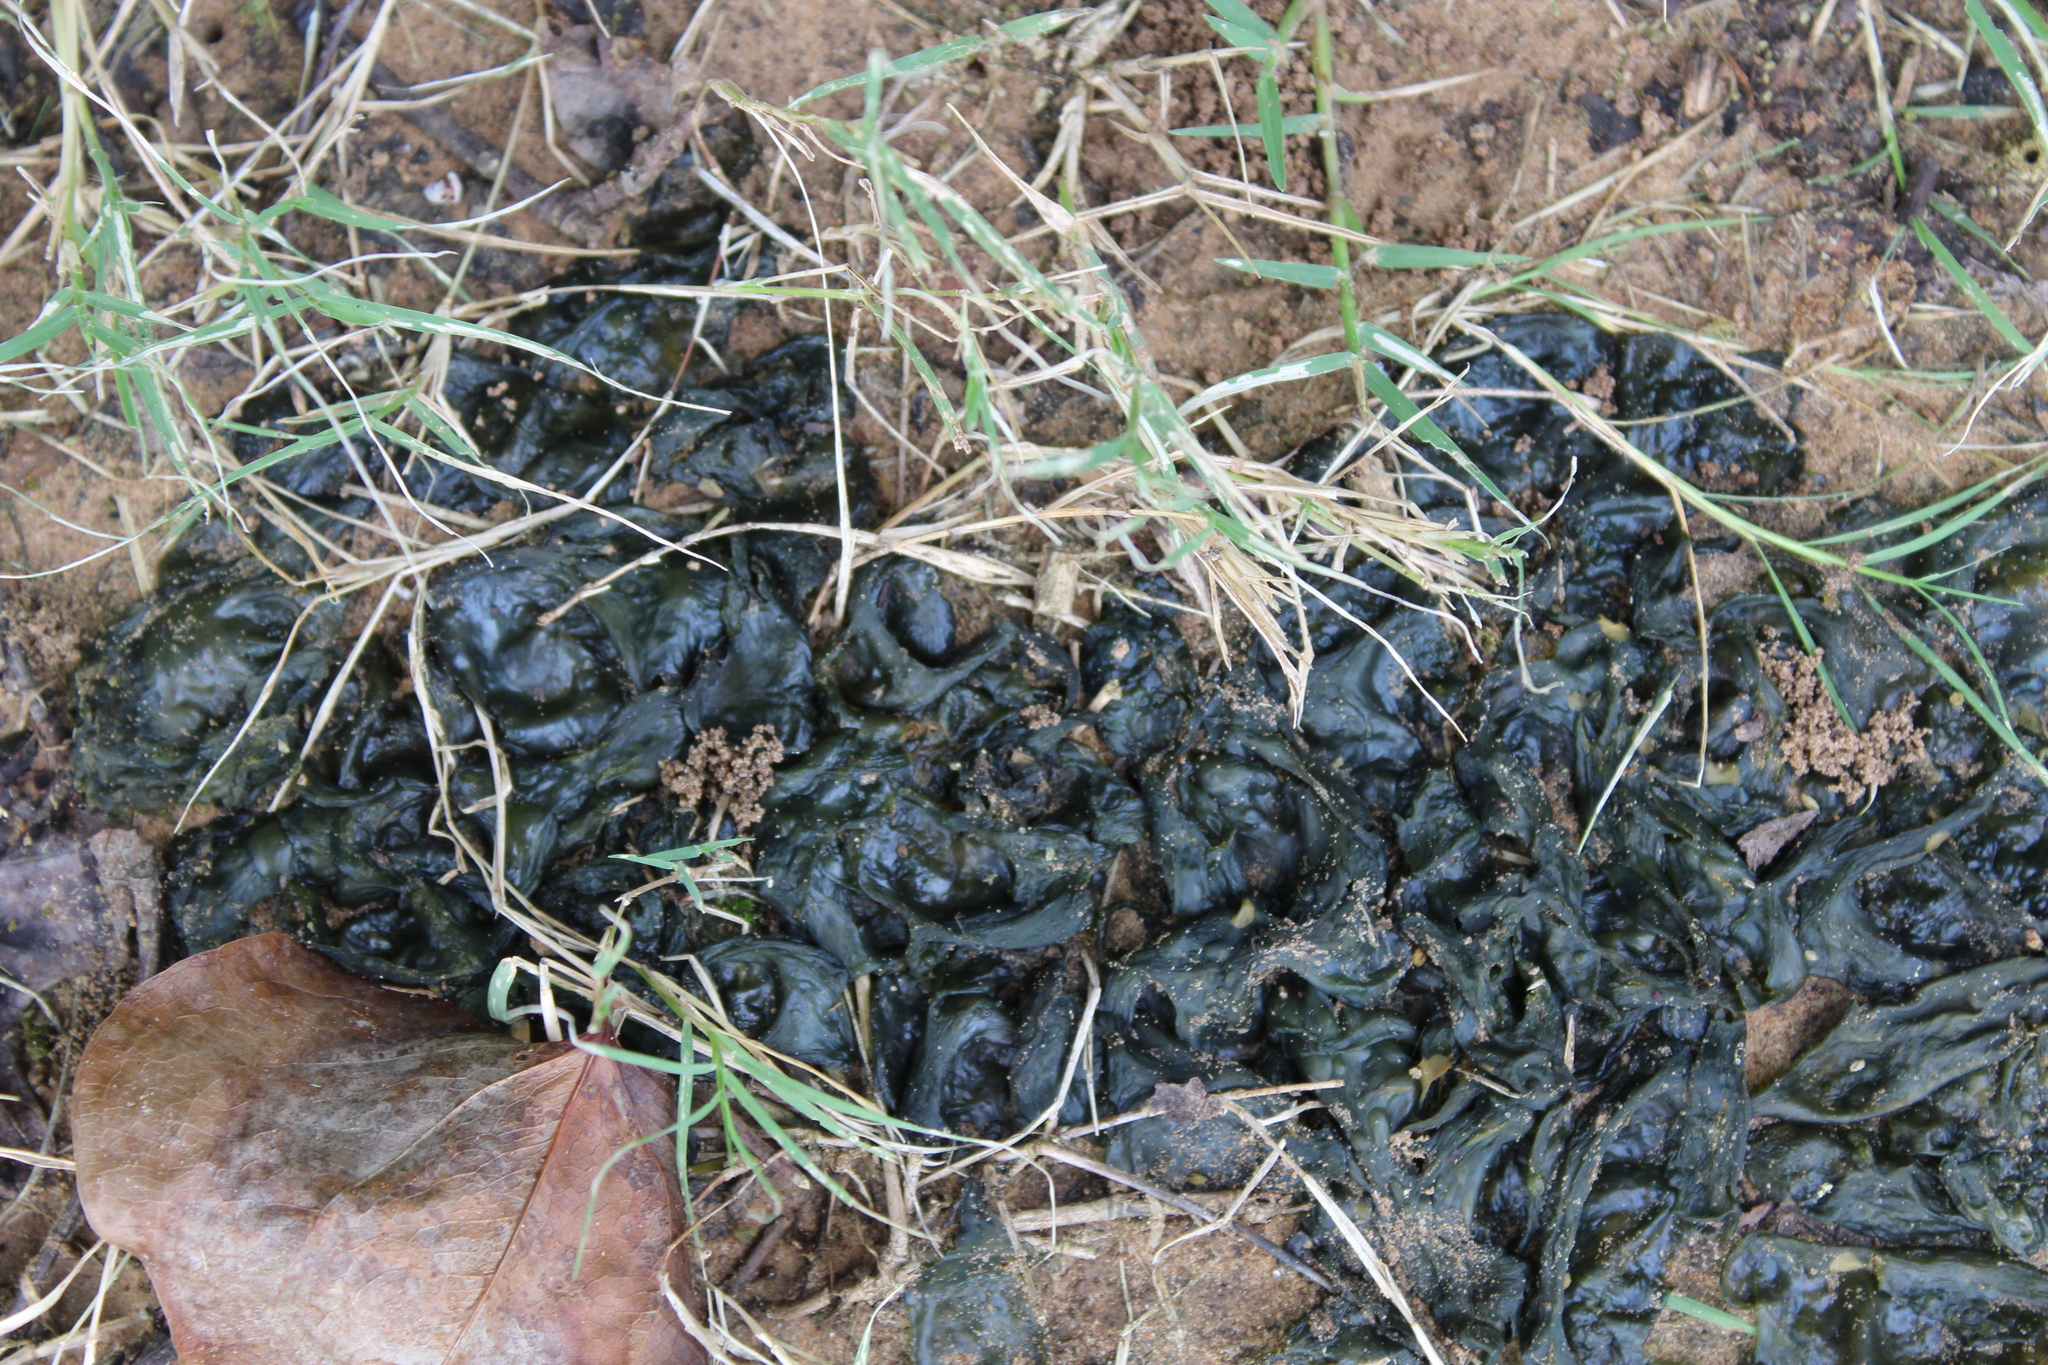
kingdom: Bacteria
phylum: Cyanobacteria
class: Cyanobacteriia
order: Cyanobacteriales
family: Nostocaceae
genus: Nostoc
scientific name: Nostoc commune
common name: Star jelly
